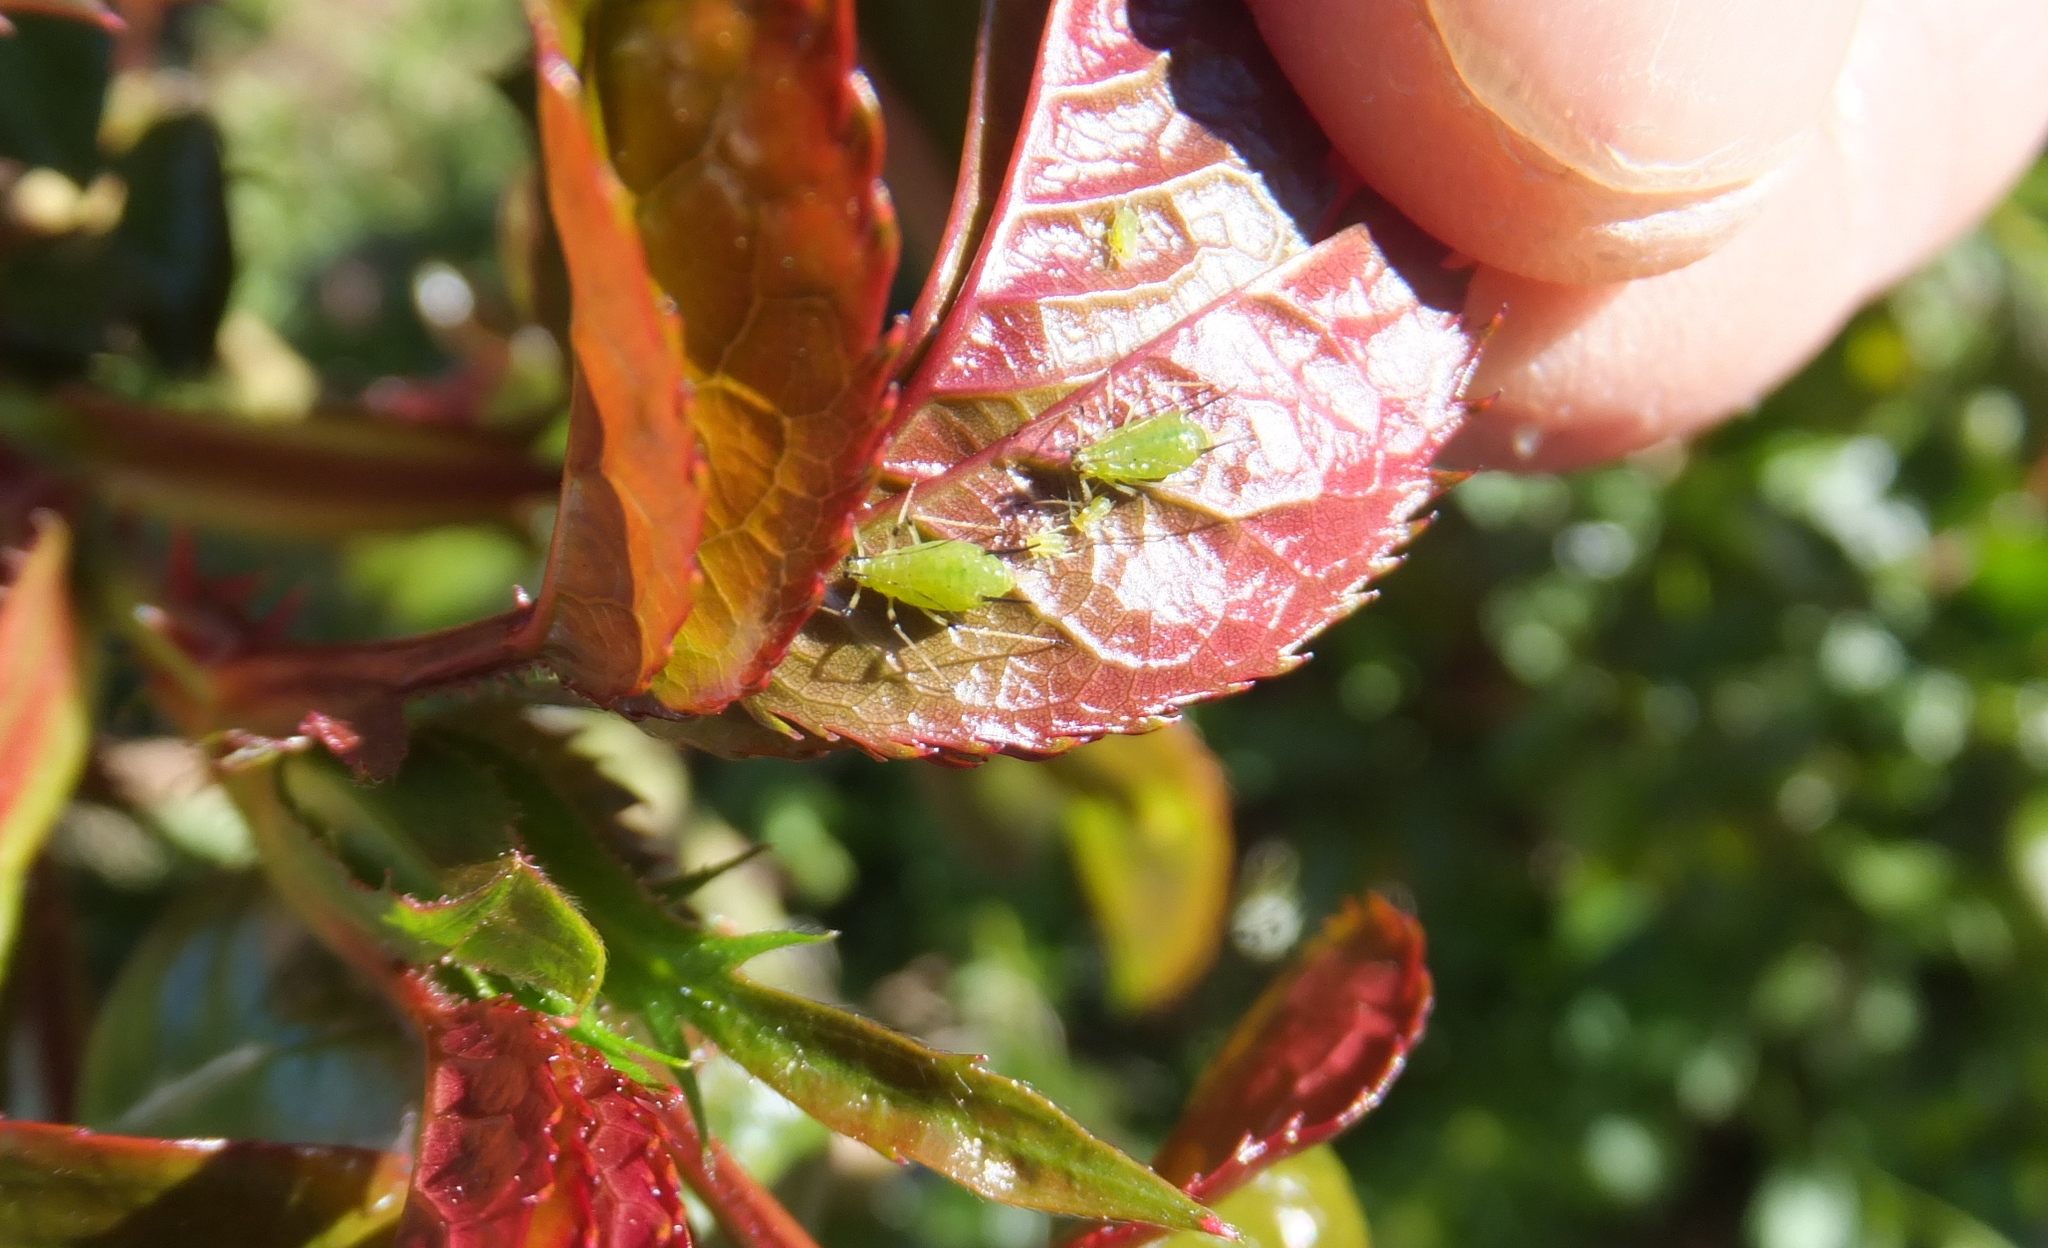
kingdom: Animalia
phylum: Arthropoda
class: Insecta
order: Hemiptera
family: Aphididae
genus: Macrosiphum
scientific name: Macrosiphum rosae
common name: Rose aphid
